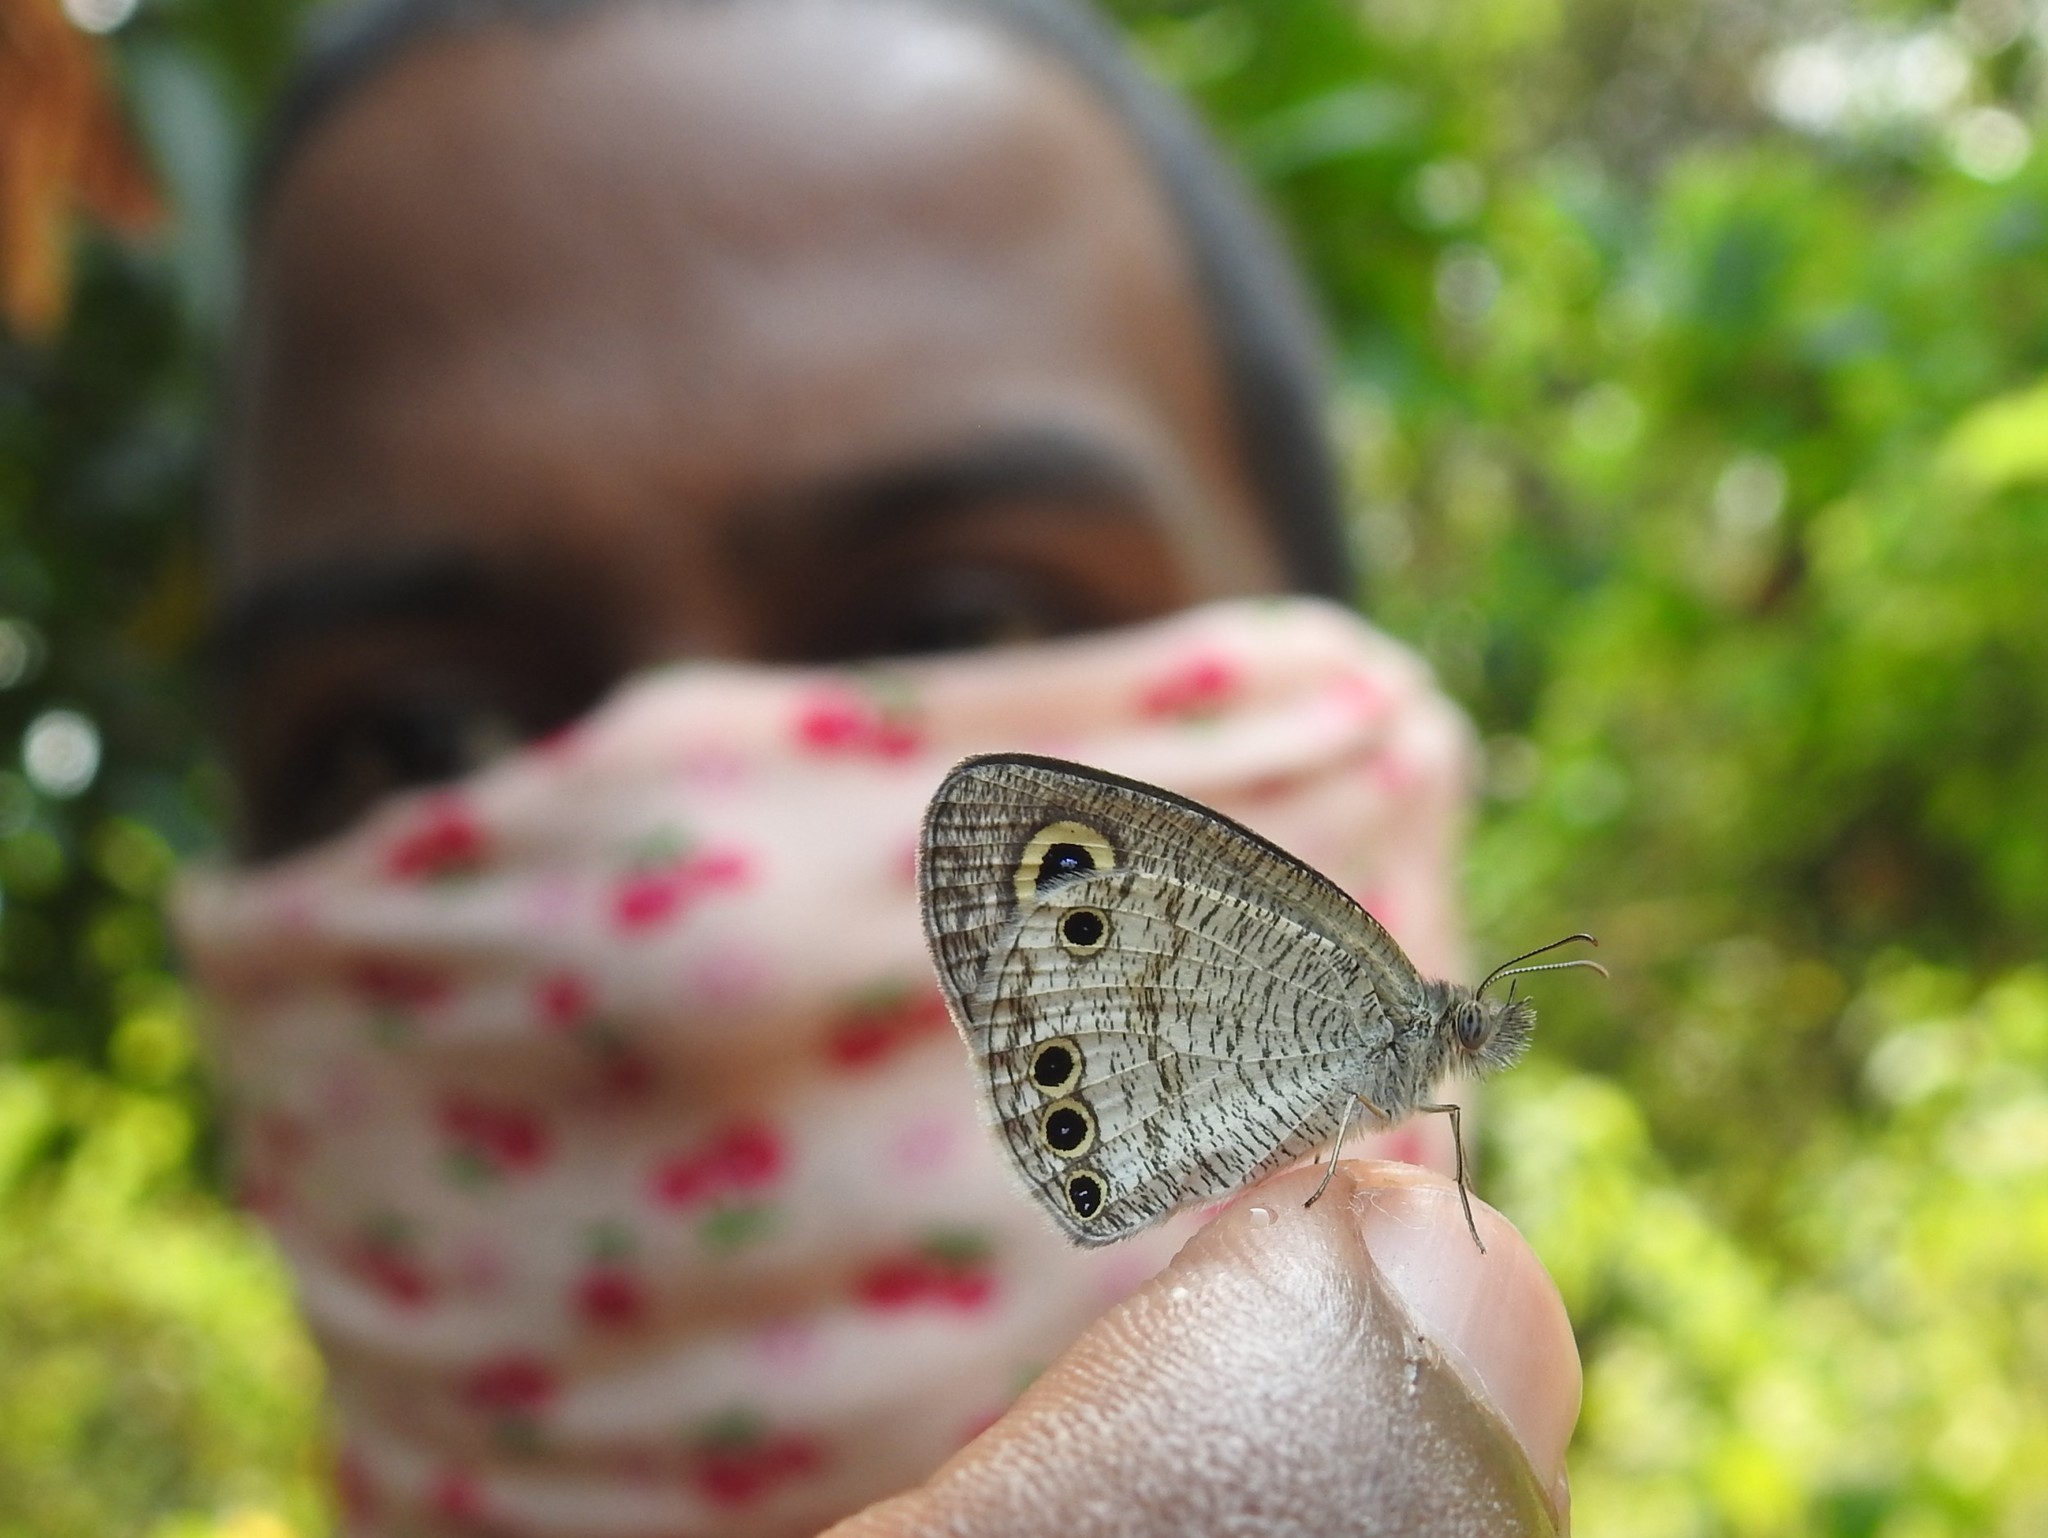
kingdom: Animalia
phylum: Arthropoda
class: Insecta
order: Lepidoptera
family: Nymphalidae
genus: Ypthima
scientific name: Ypthima huebneri
